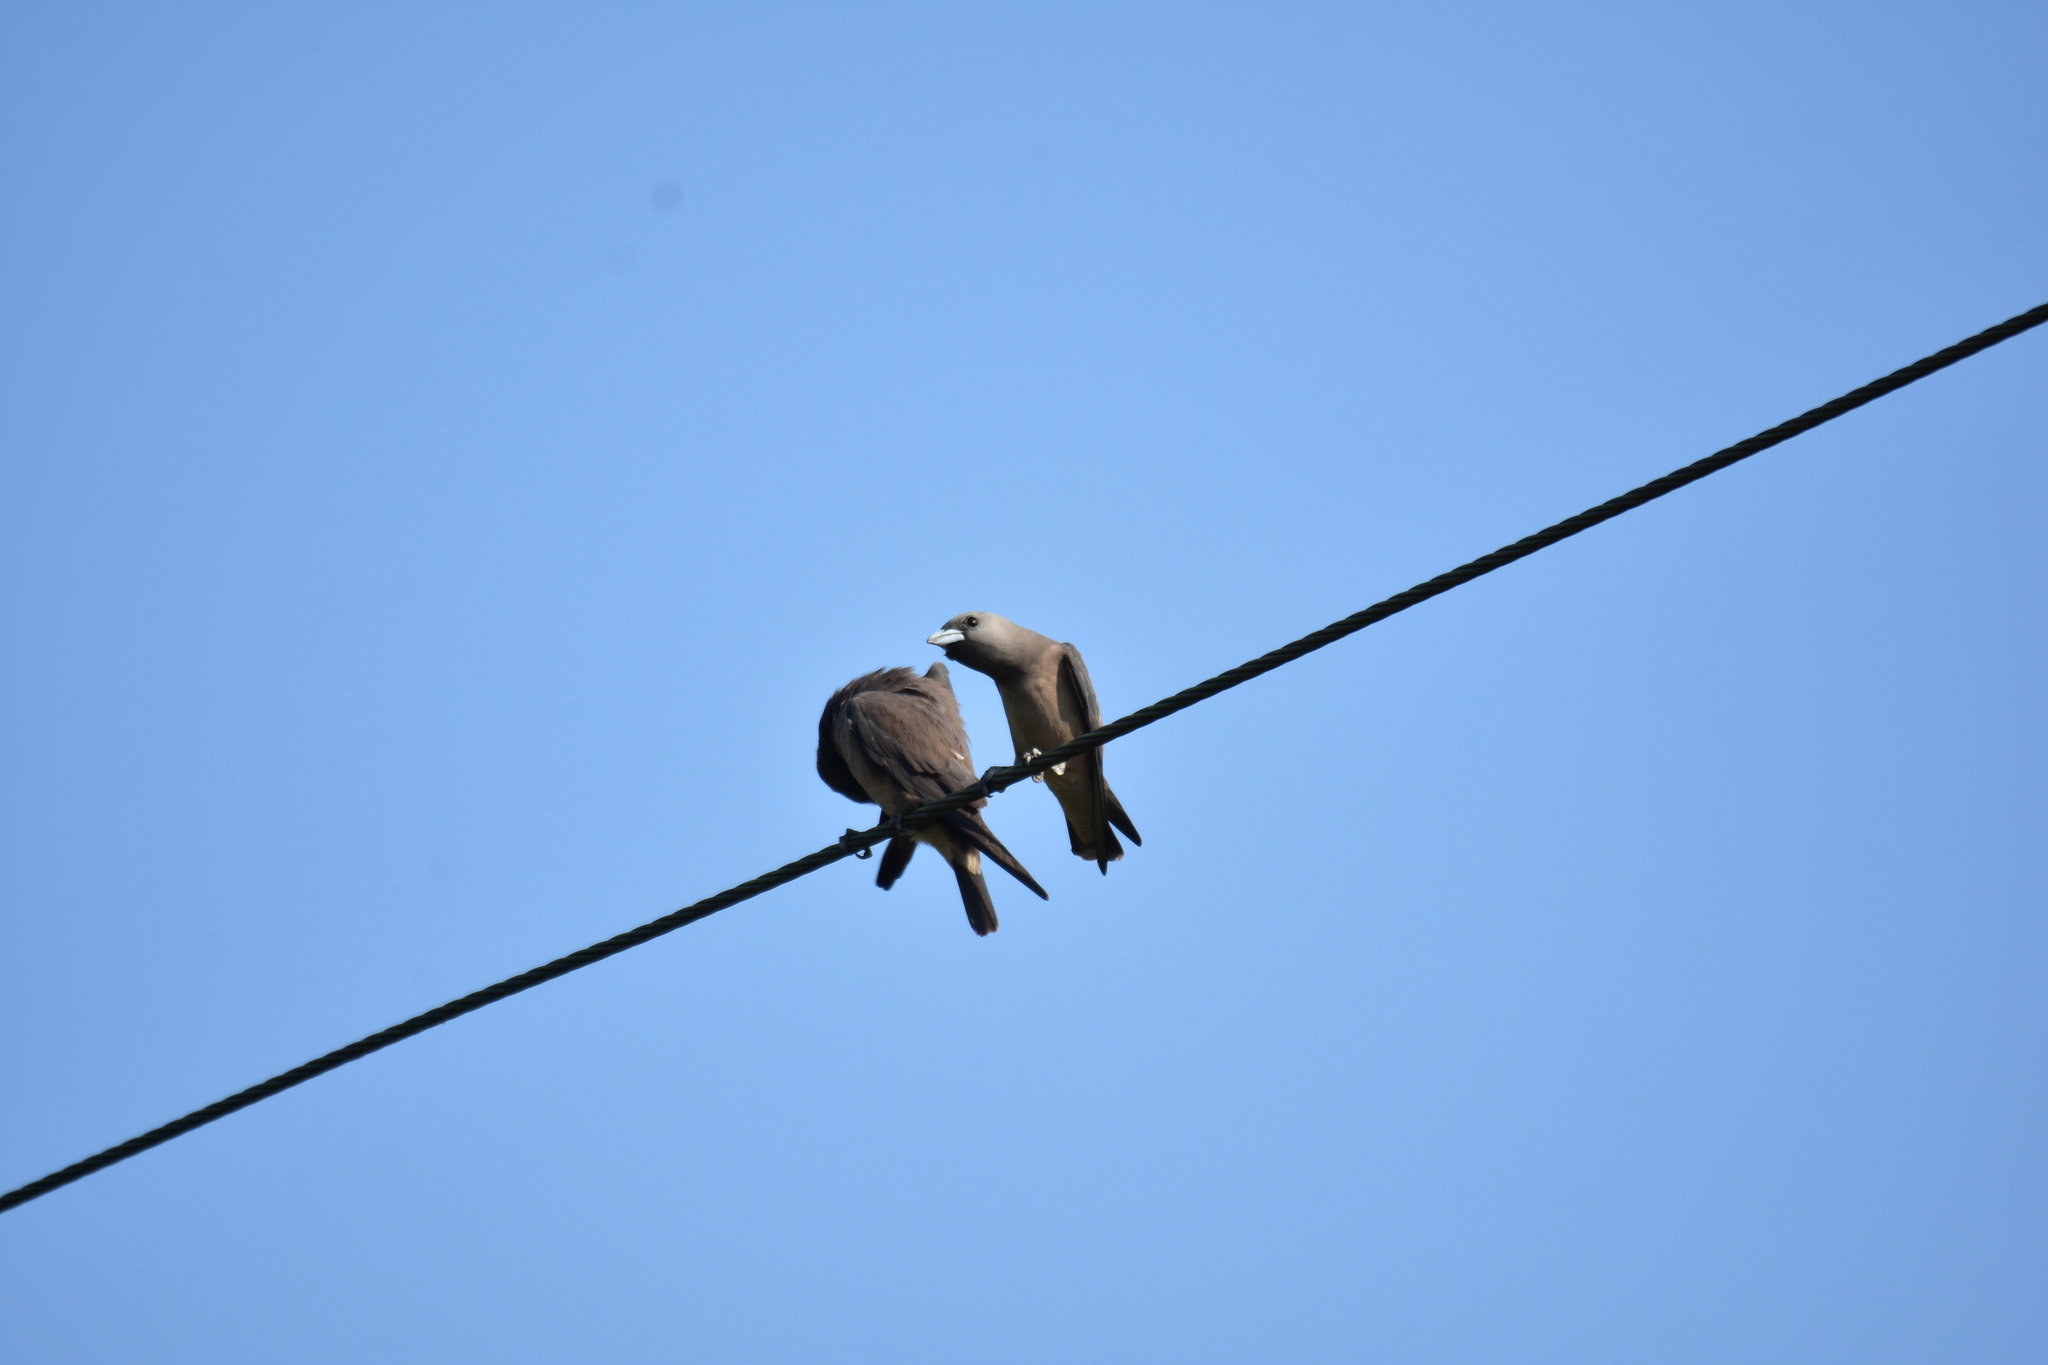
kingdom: Animalia
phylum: Chordata
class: Aves
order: Passeriformes
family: Artamidae
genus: Artamus
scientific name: Artamus fuscus
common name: Ashy woodswallow
